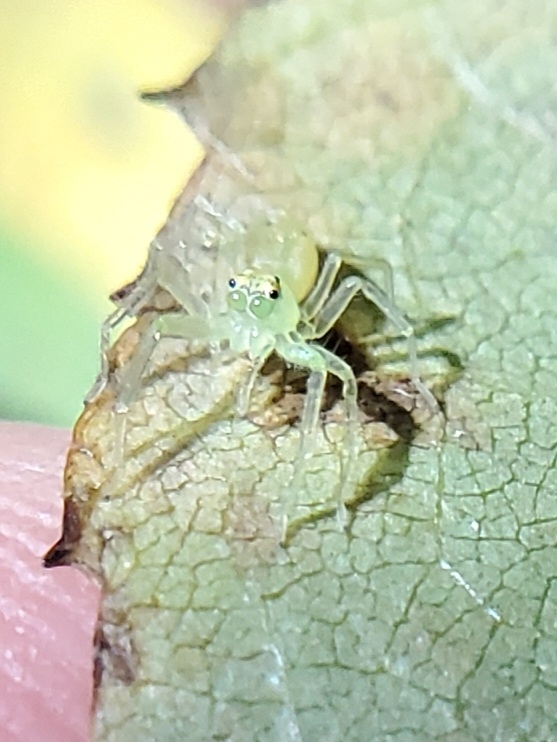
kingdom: Animalia
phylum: Arthropoda
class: Arachnida
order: Araneae
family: Salticidae
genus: Lyssomanes
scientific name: Lyssomanes viridis
